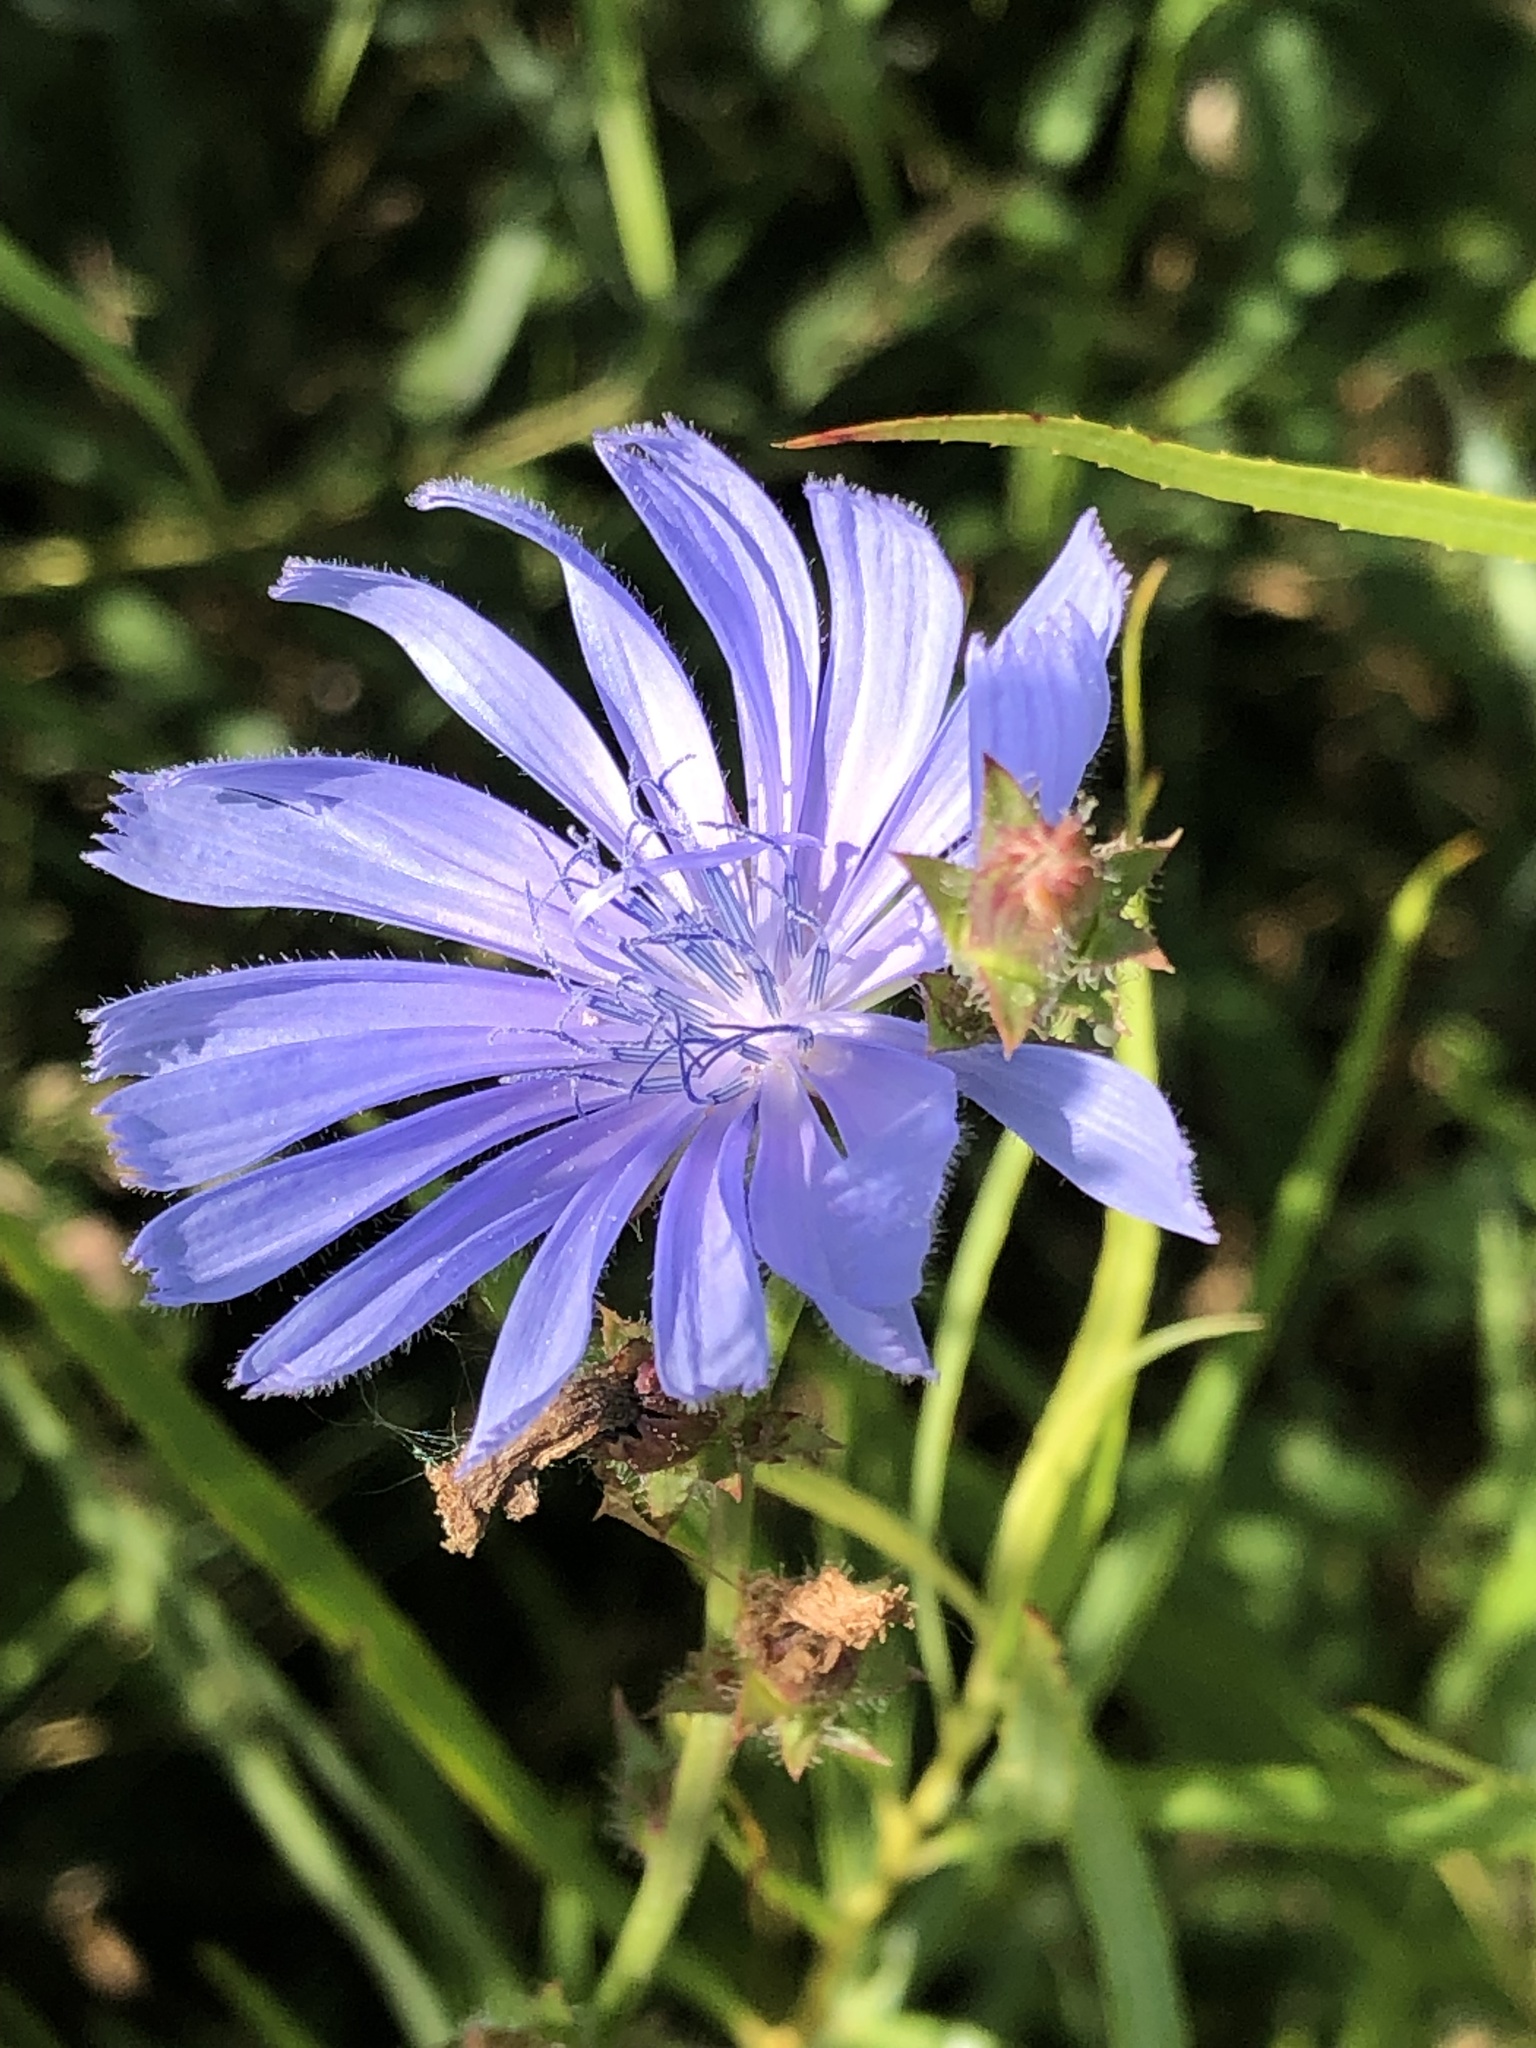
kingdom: Plantae
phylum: Tracheophyta
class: Magnoliopsida
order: Asterales
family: Asteraceae
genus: Cichorium
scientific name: Cichorium intybus
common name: Chicory
